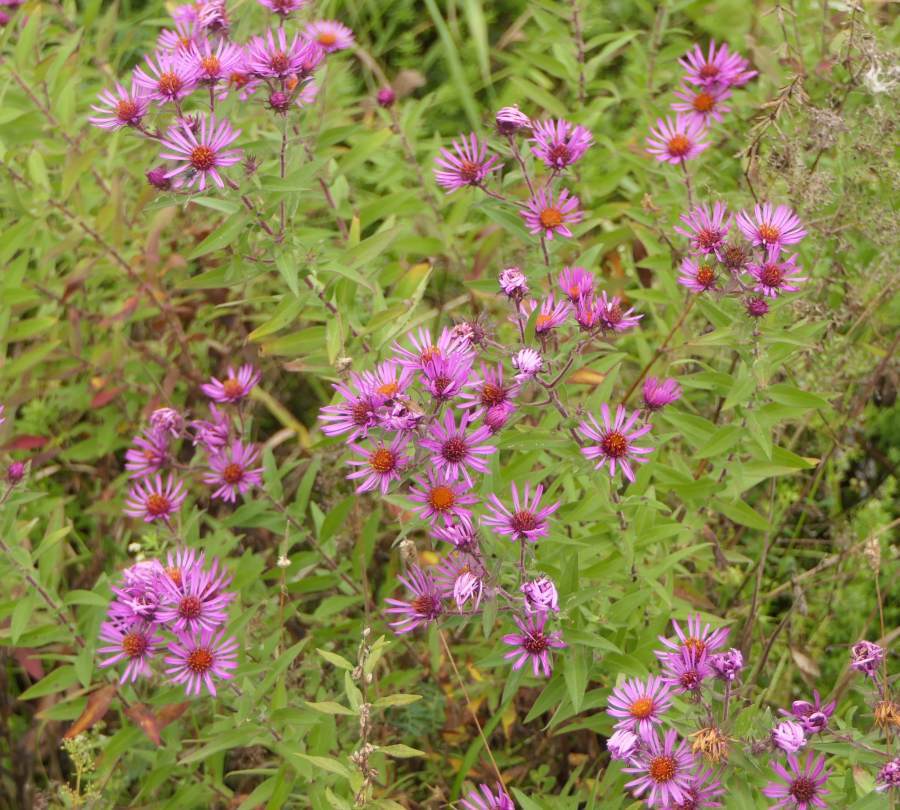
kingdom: Plantae
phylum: Tracheophyta
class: Magnoliopsida
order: Asterales
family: Asteraceae
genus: Symphyotrichum
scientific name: Symphyotrichum novae-angliae
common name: Michaelmas daisy
